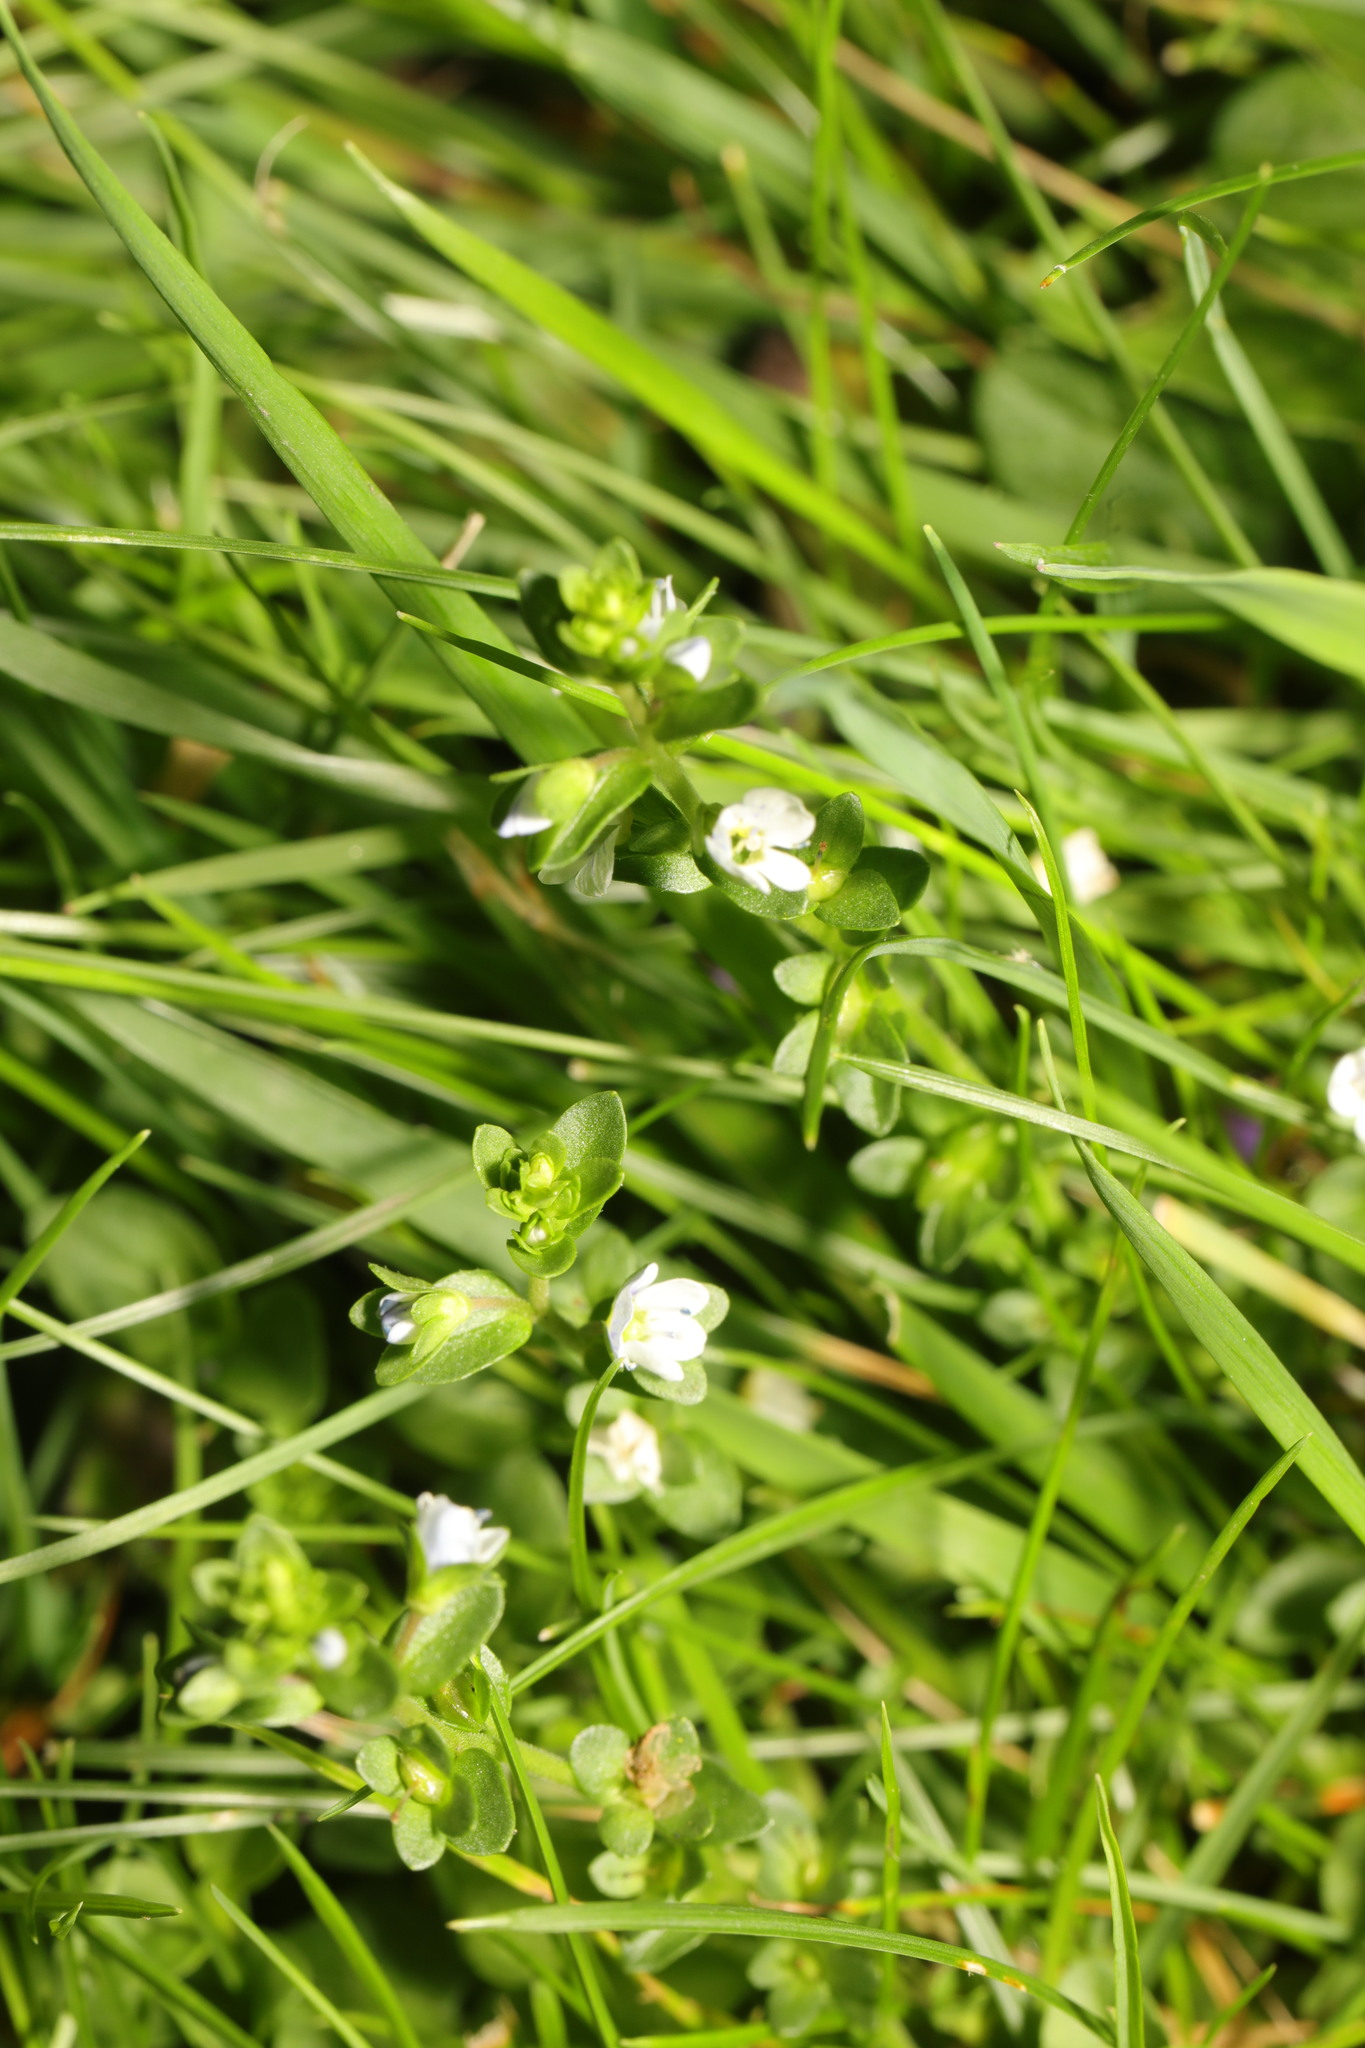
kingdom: Plantae
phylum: Tracheophyta
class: Magnoliopsida
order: Lamiales
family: Plantaginaceae
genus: Veronica
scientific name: Veronica serpyllifolia
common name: Thyme-leaved speedwell
